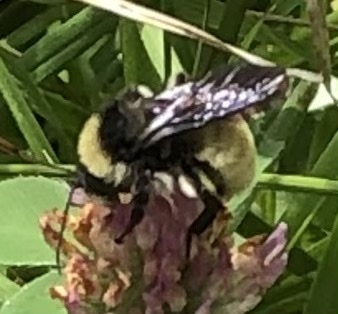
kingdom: Animalia
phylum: Arthropoda
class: Insecta
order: Hymenoptera
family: Apidae
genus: Bombus
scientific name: Bombus pensylvanicus
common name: Bumble bee
